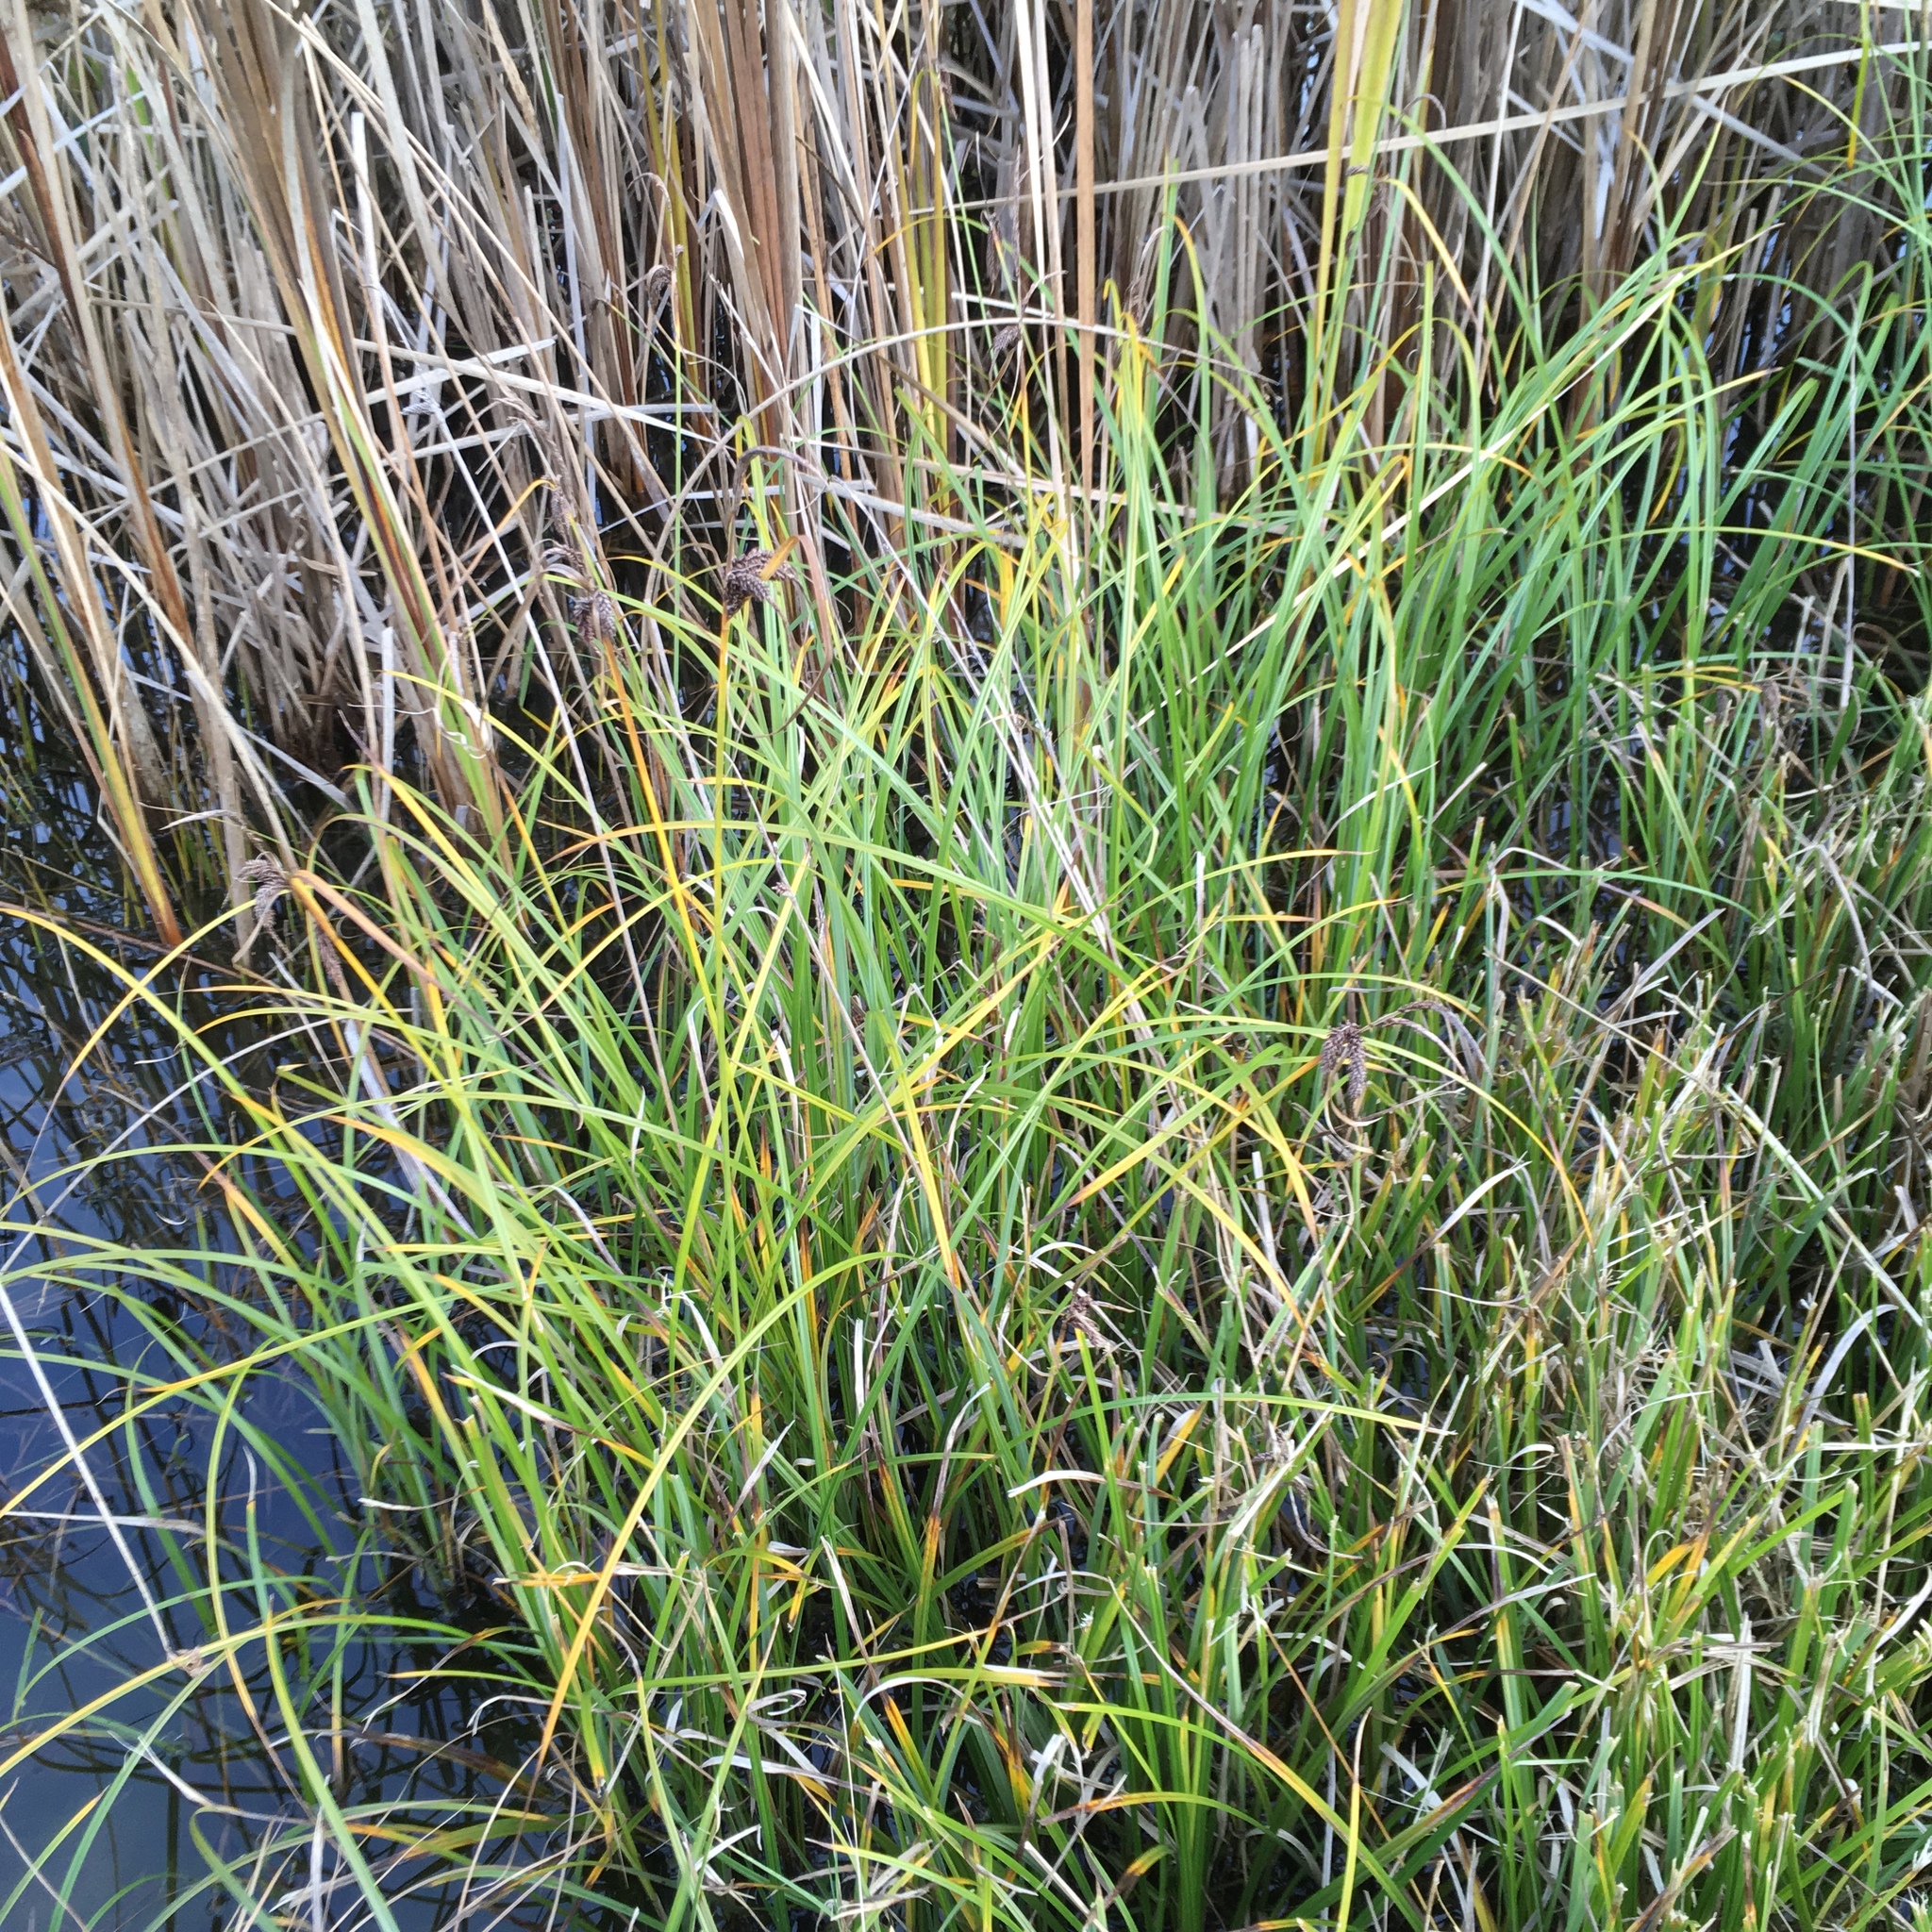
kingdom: Plantae
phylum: Tracheophyta
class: Liliopsida
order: Poales
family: Cyperaceae
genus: Carex
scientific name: Carex obnupta
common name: Slough sedge
